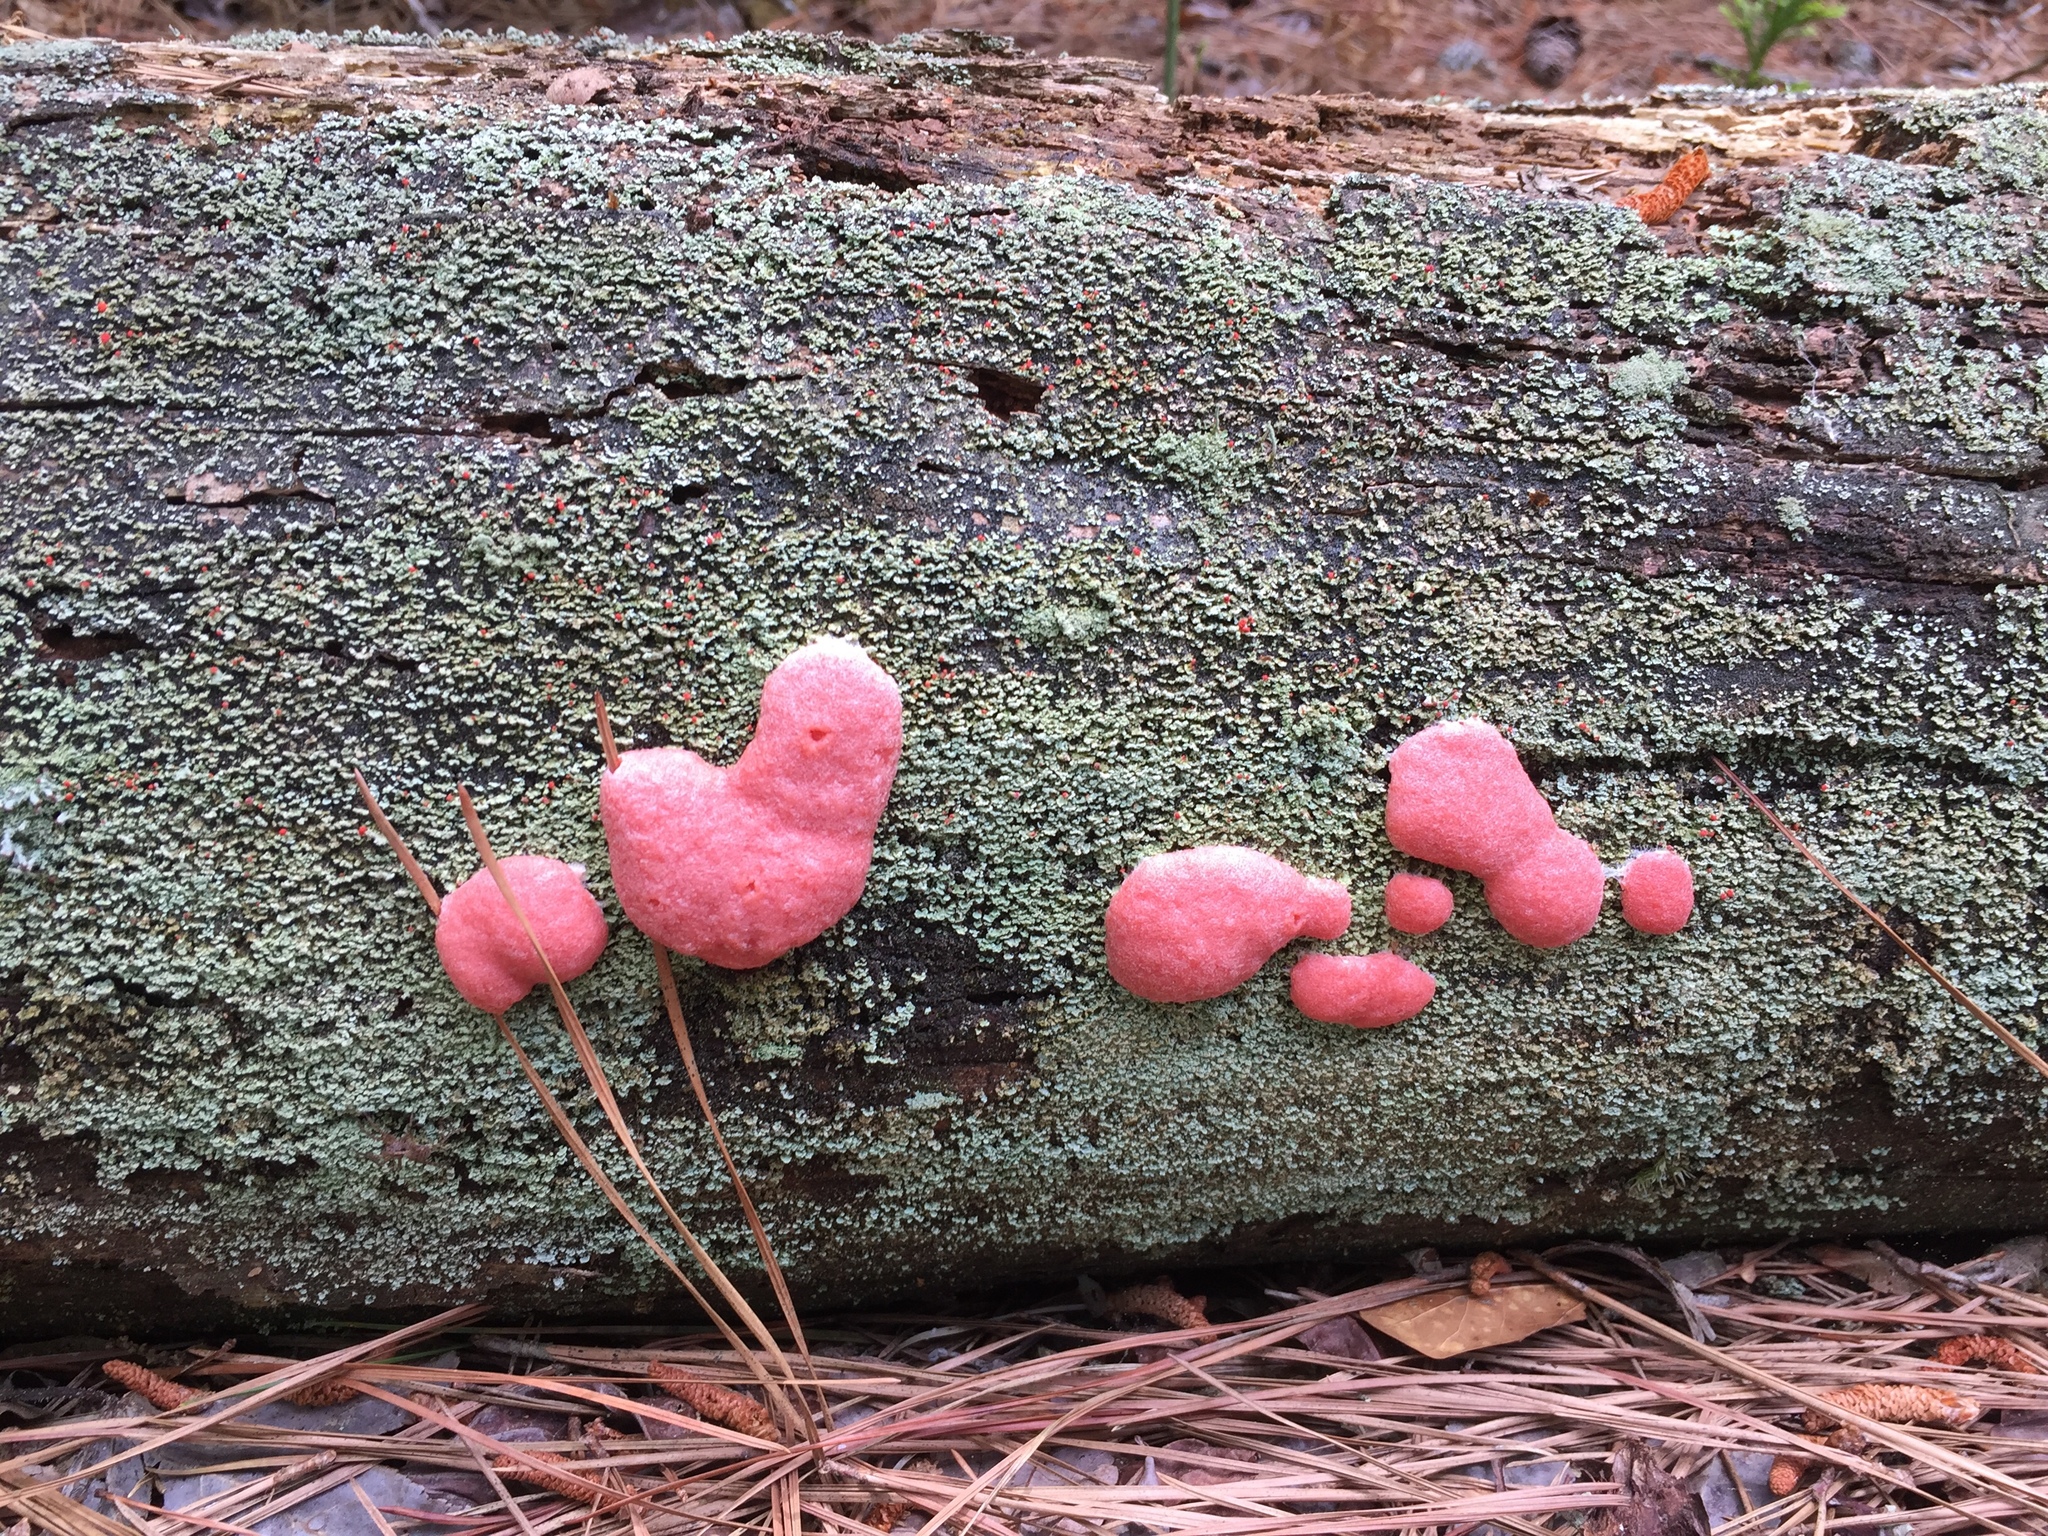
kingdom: Protozoa
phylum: Mycetozoa
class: Myxomycetes
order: Cribrariales
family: Tubiferaceae
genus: Tubifera
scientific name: Tubifera ferruginosa
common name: Red raspberry slime mold
